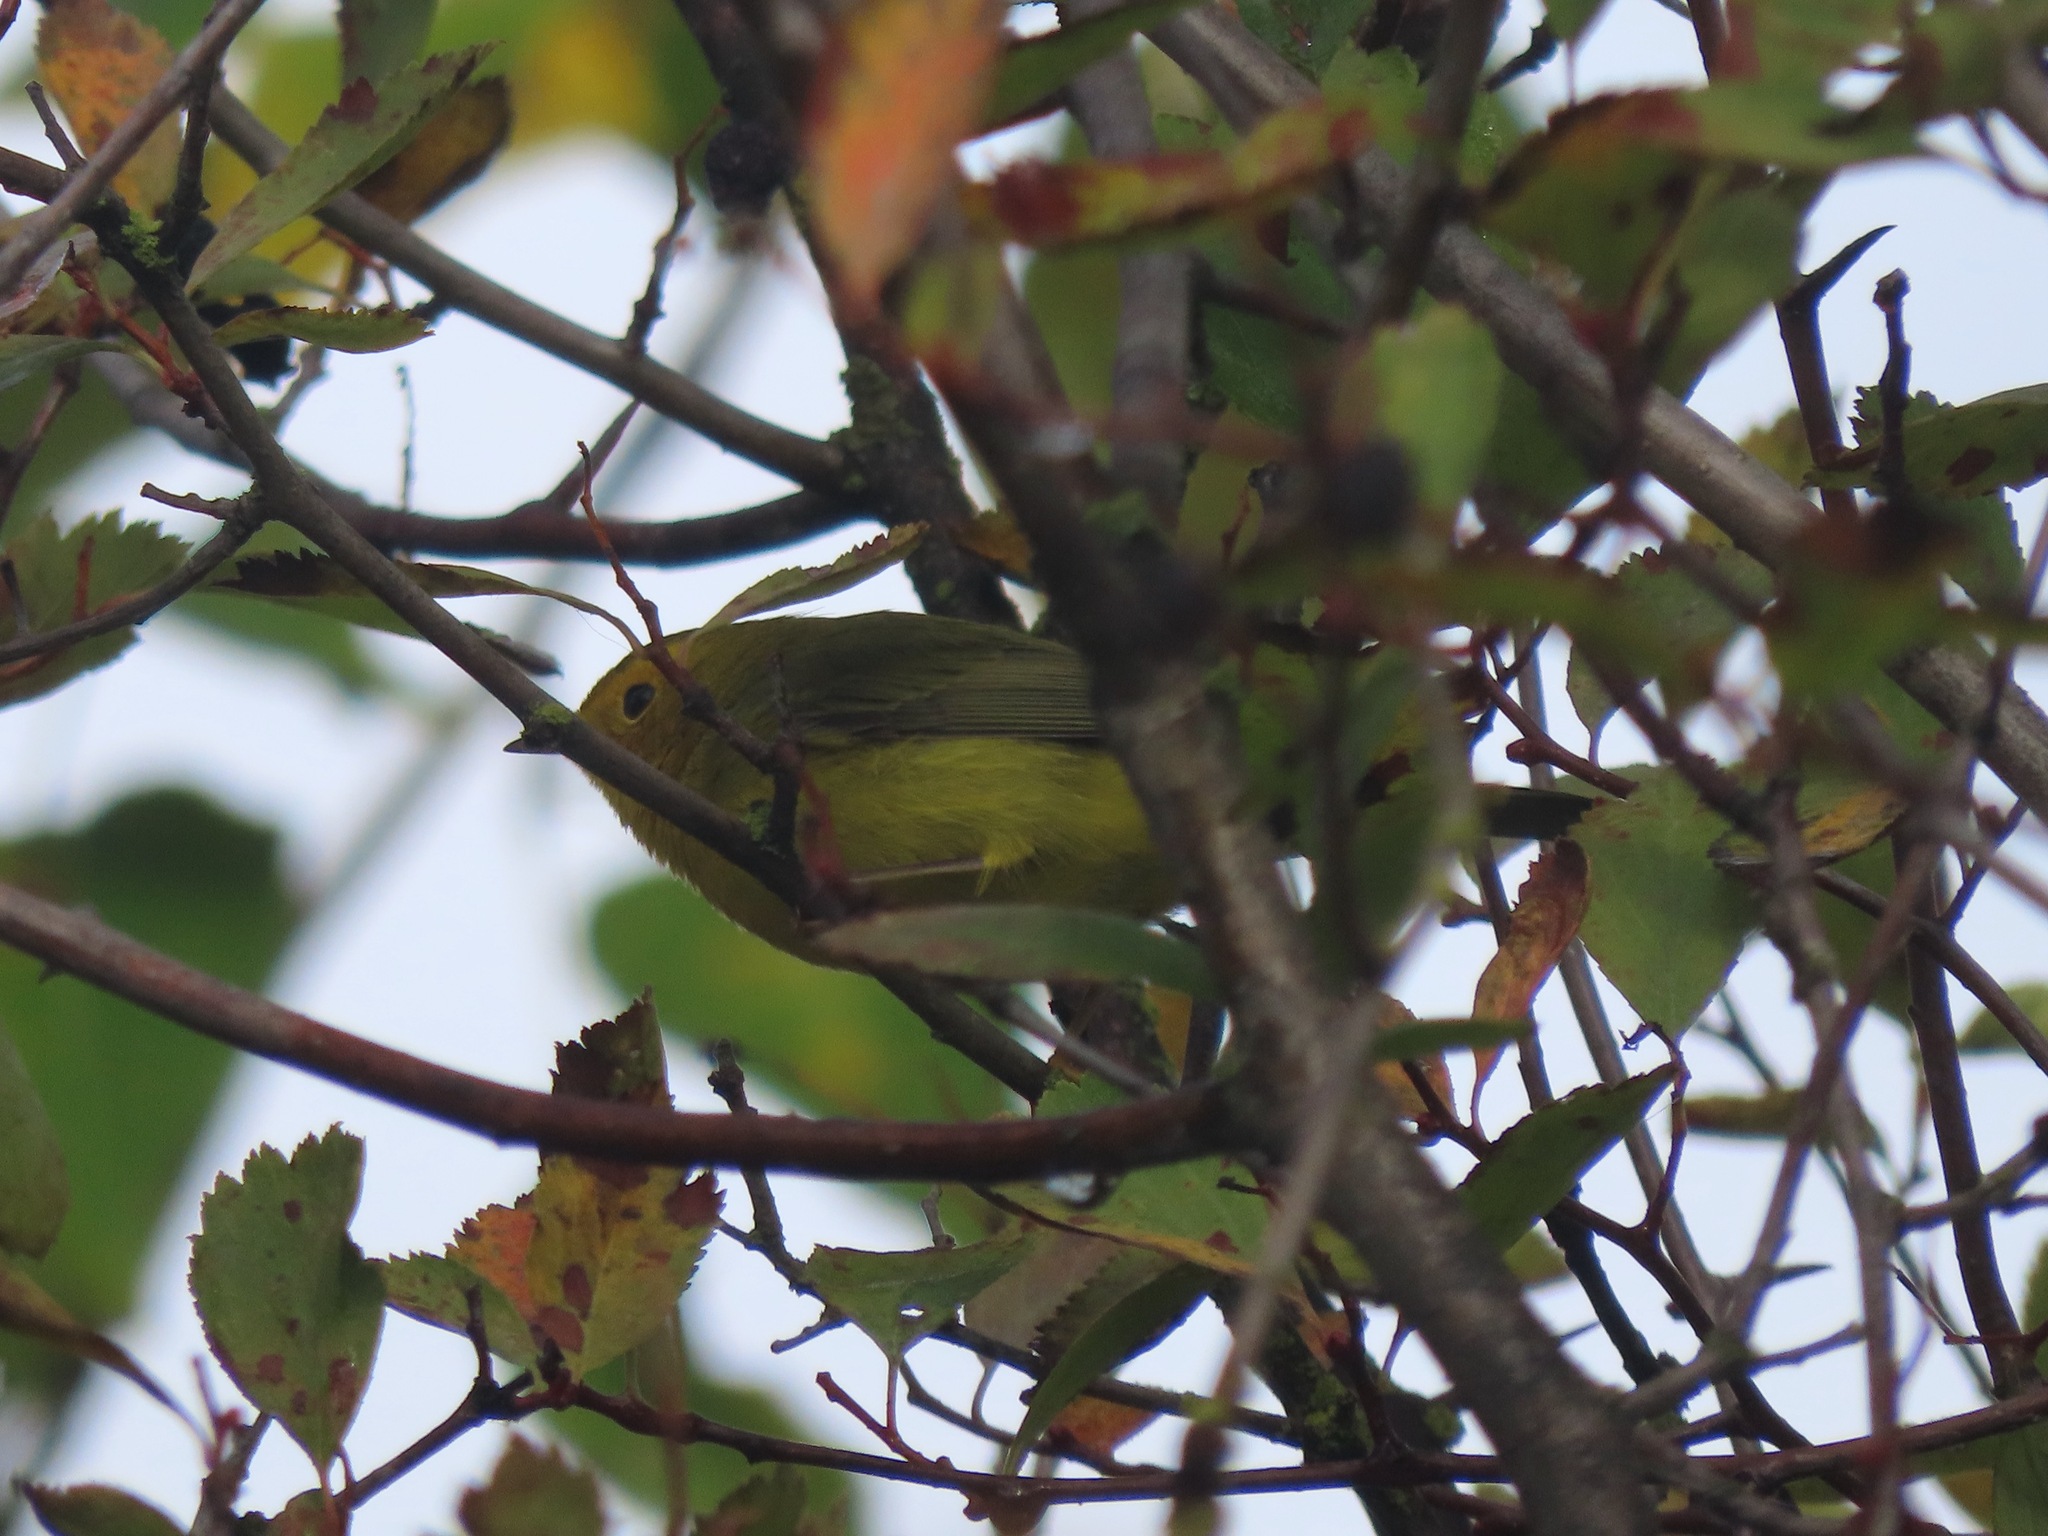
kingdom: Animalia
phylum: Chordata
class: Aves
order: Passeriformes
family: Parulidae
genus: Cardellina
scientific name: Cardellina pusilla
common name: Wilson's warbler
